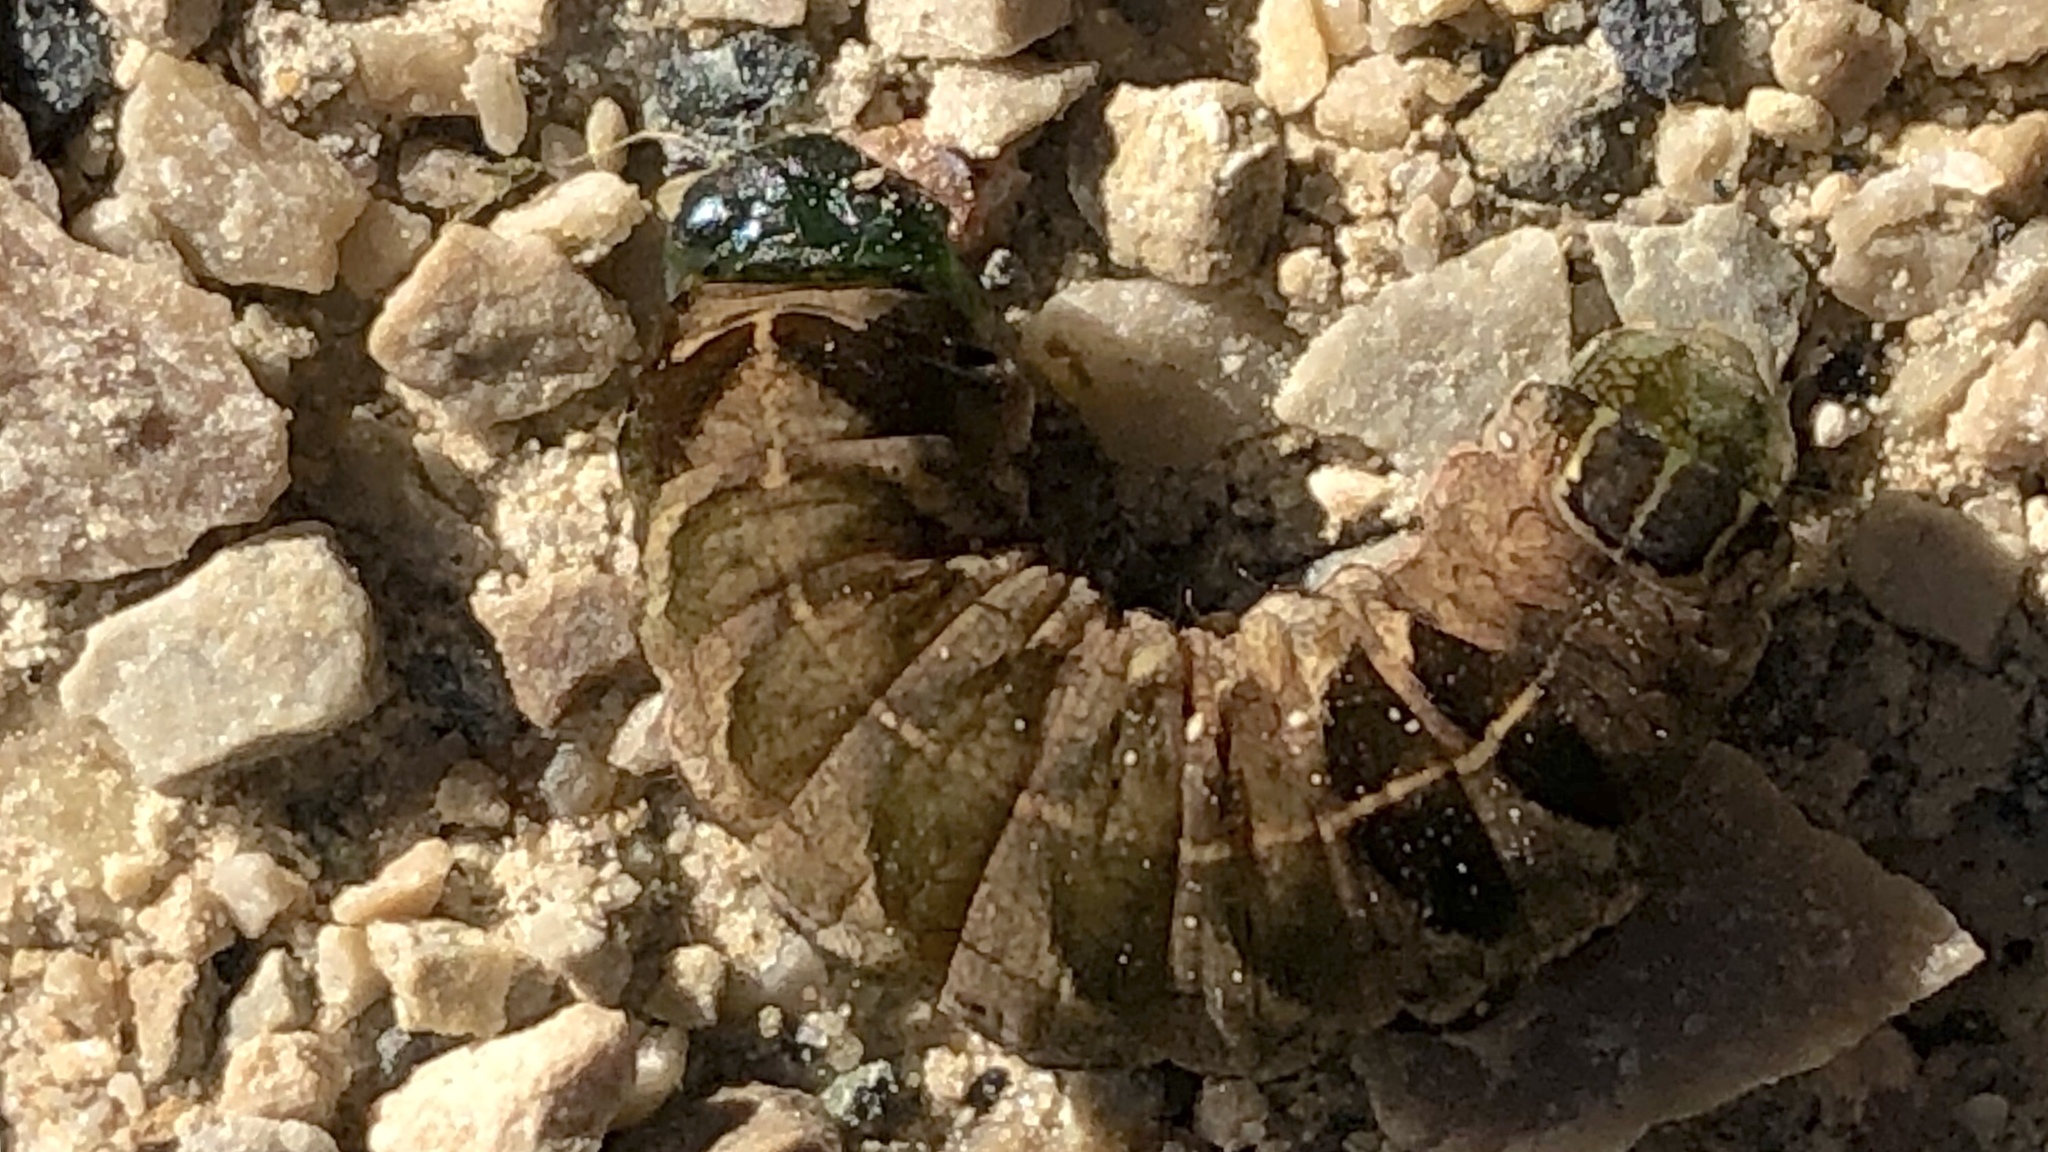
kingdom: Animalia
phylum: Arthropoda
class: Insecta
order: Lepidoptera
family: Noctuidae
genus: Melanchra
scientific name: Melanchra adjuncta
